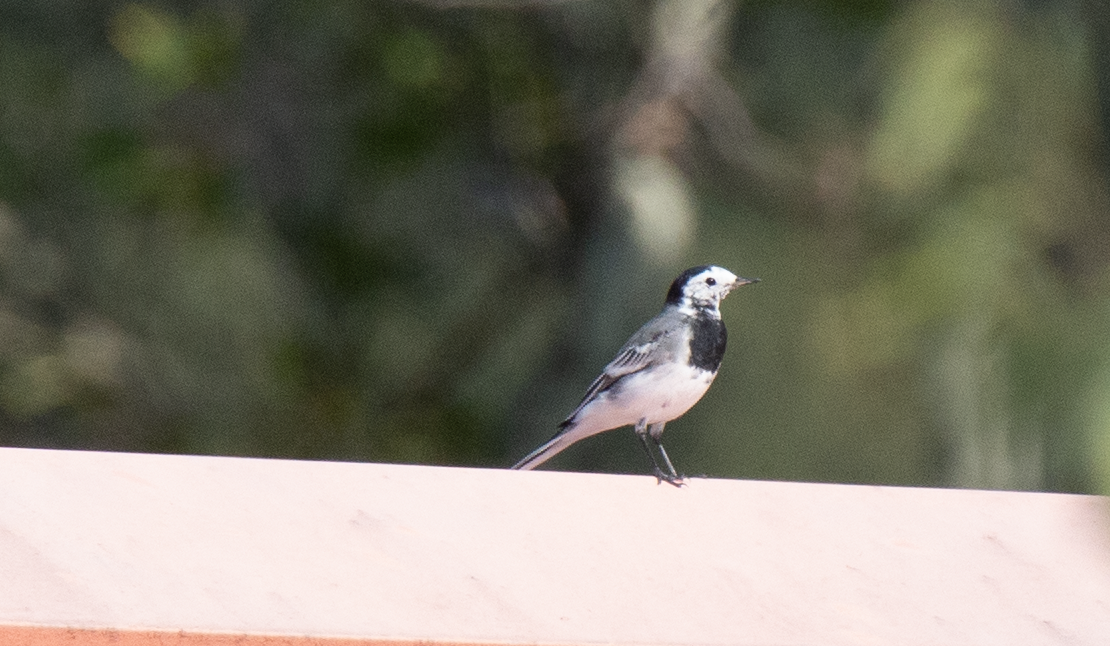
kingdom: Animalia
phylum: Chordata
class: Aves
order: Passeriformes
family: Motacillidae
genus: Motacilla
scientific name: Motacilla alba
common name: White wagtail
